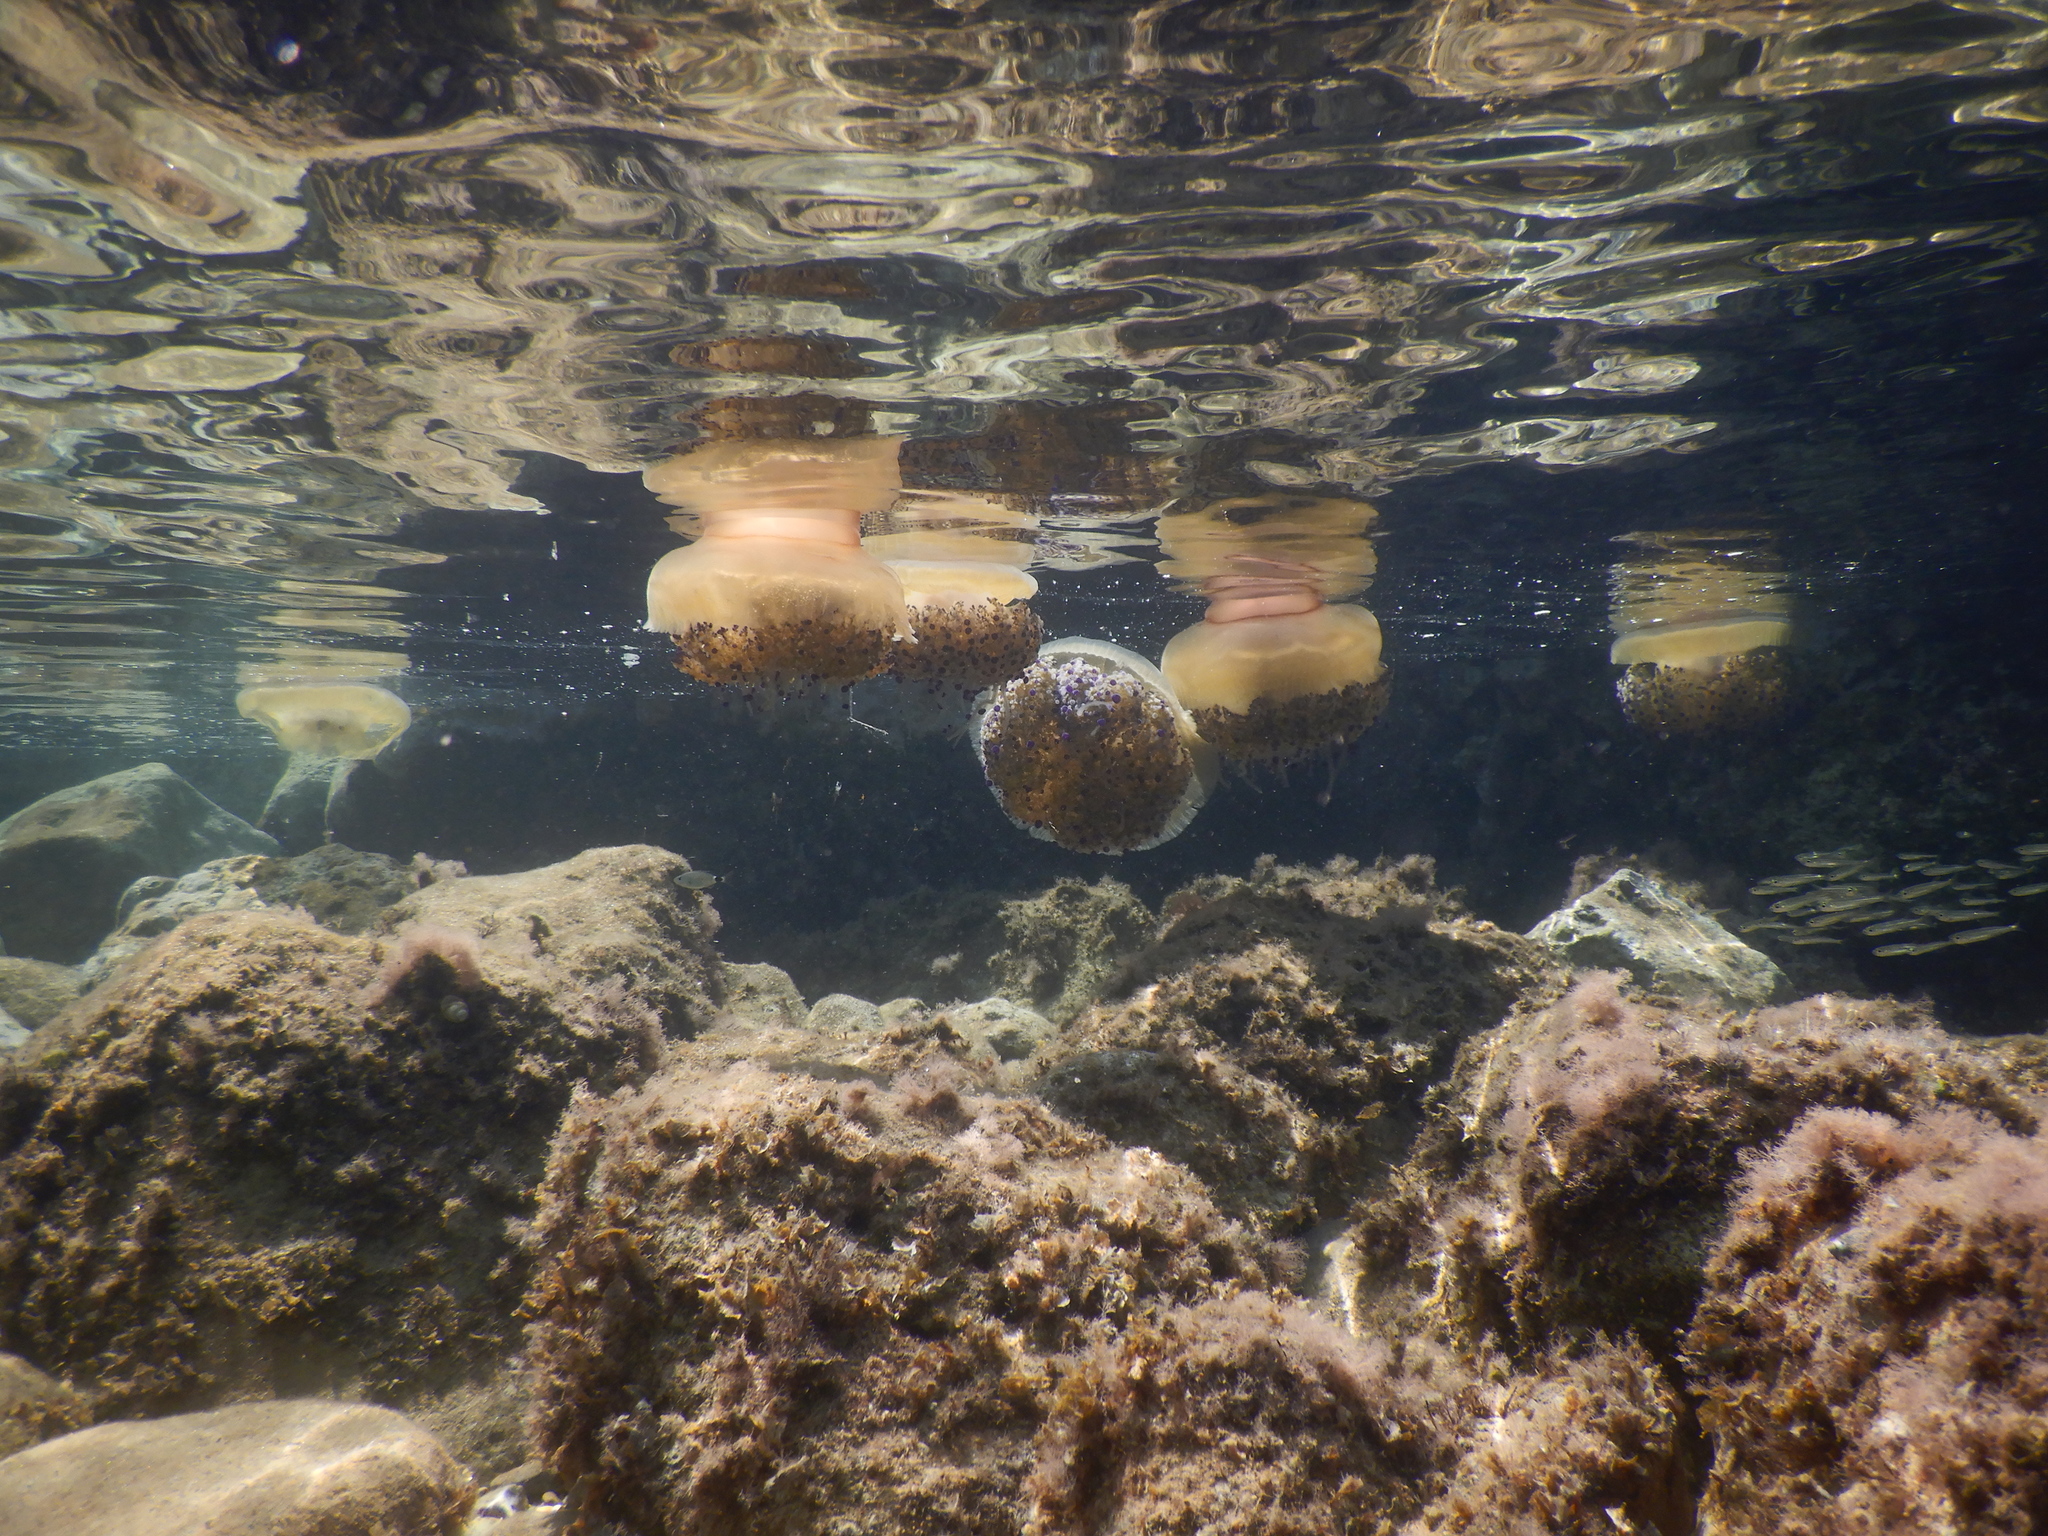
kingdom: Animalia
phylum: Cnidaria
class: Scyphozoa
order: Rhizostomeae
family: Cepheidae
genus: Cotylorhiza
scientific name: Cotylorhiza tuberculata
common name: Mediterranean jelly
